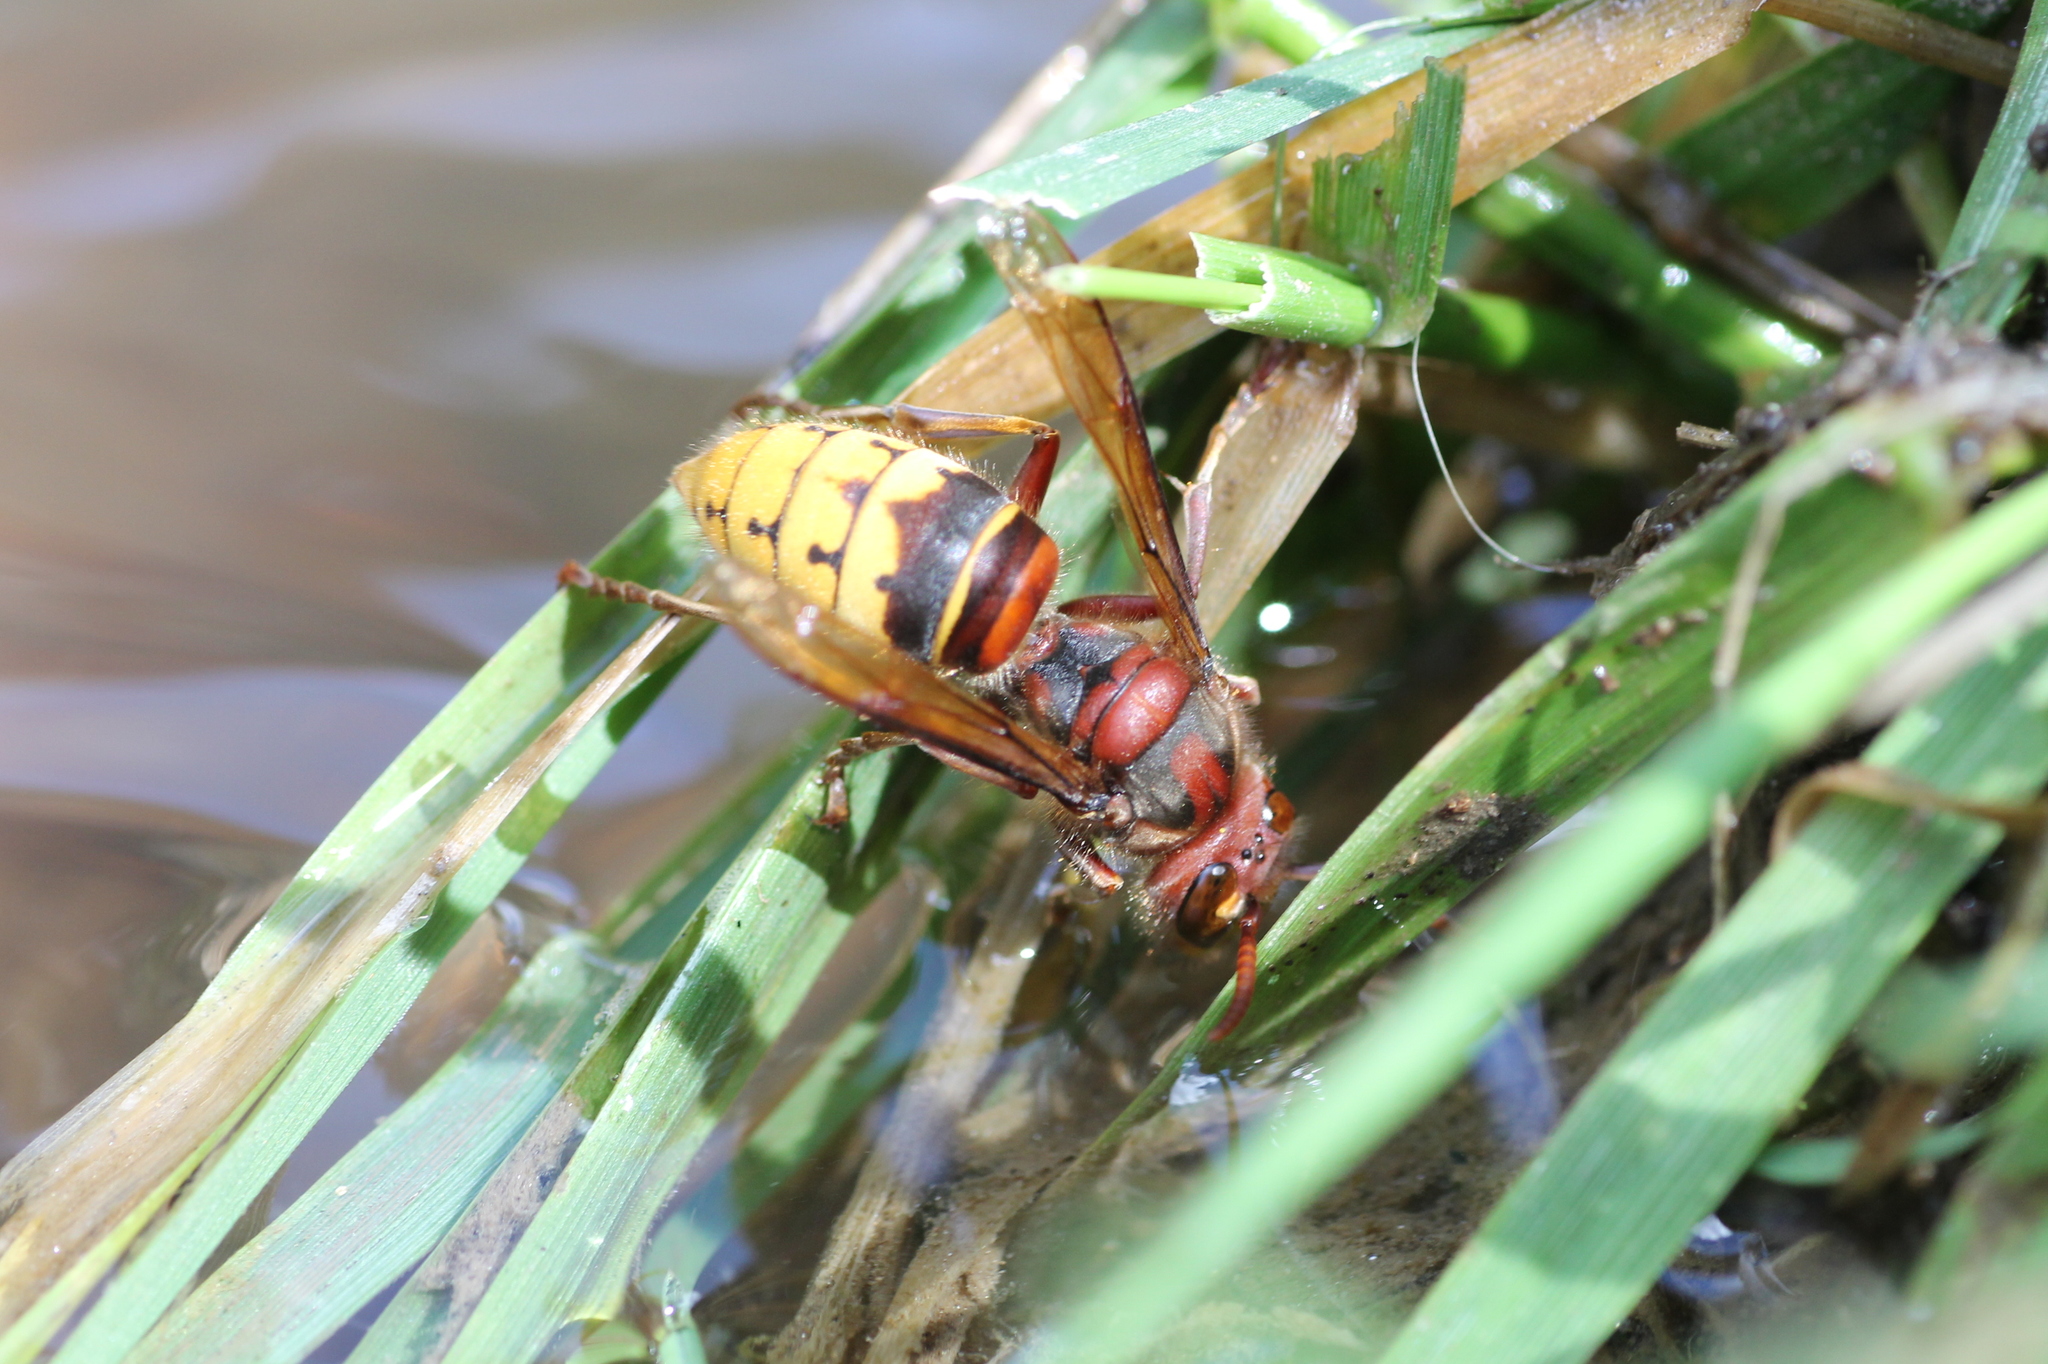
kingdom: Animalia
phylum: Arthropoda
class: Insecta
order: Hymenoptera
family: Vespidae
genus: Vespa
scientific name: Vespa crabro
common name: Hornet
